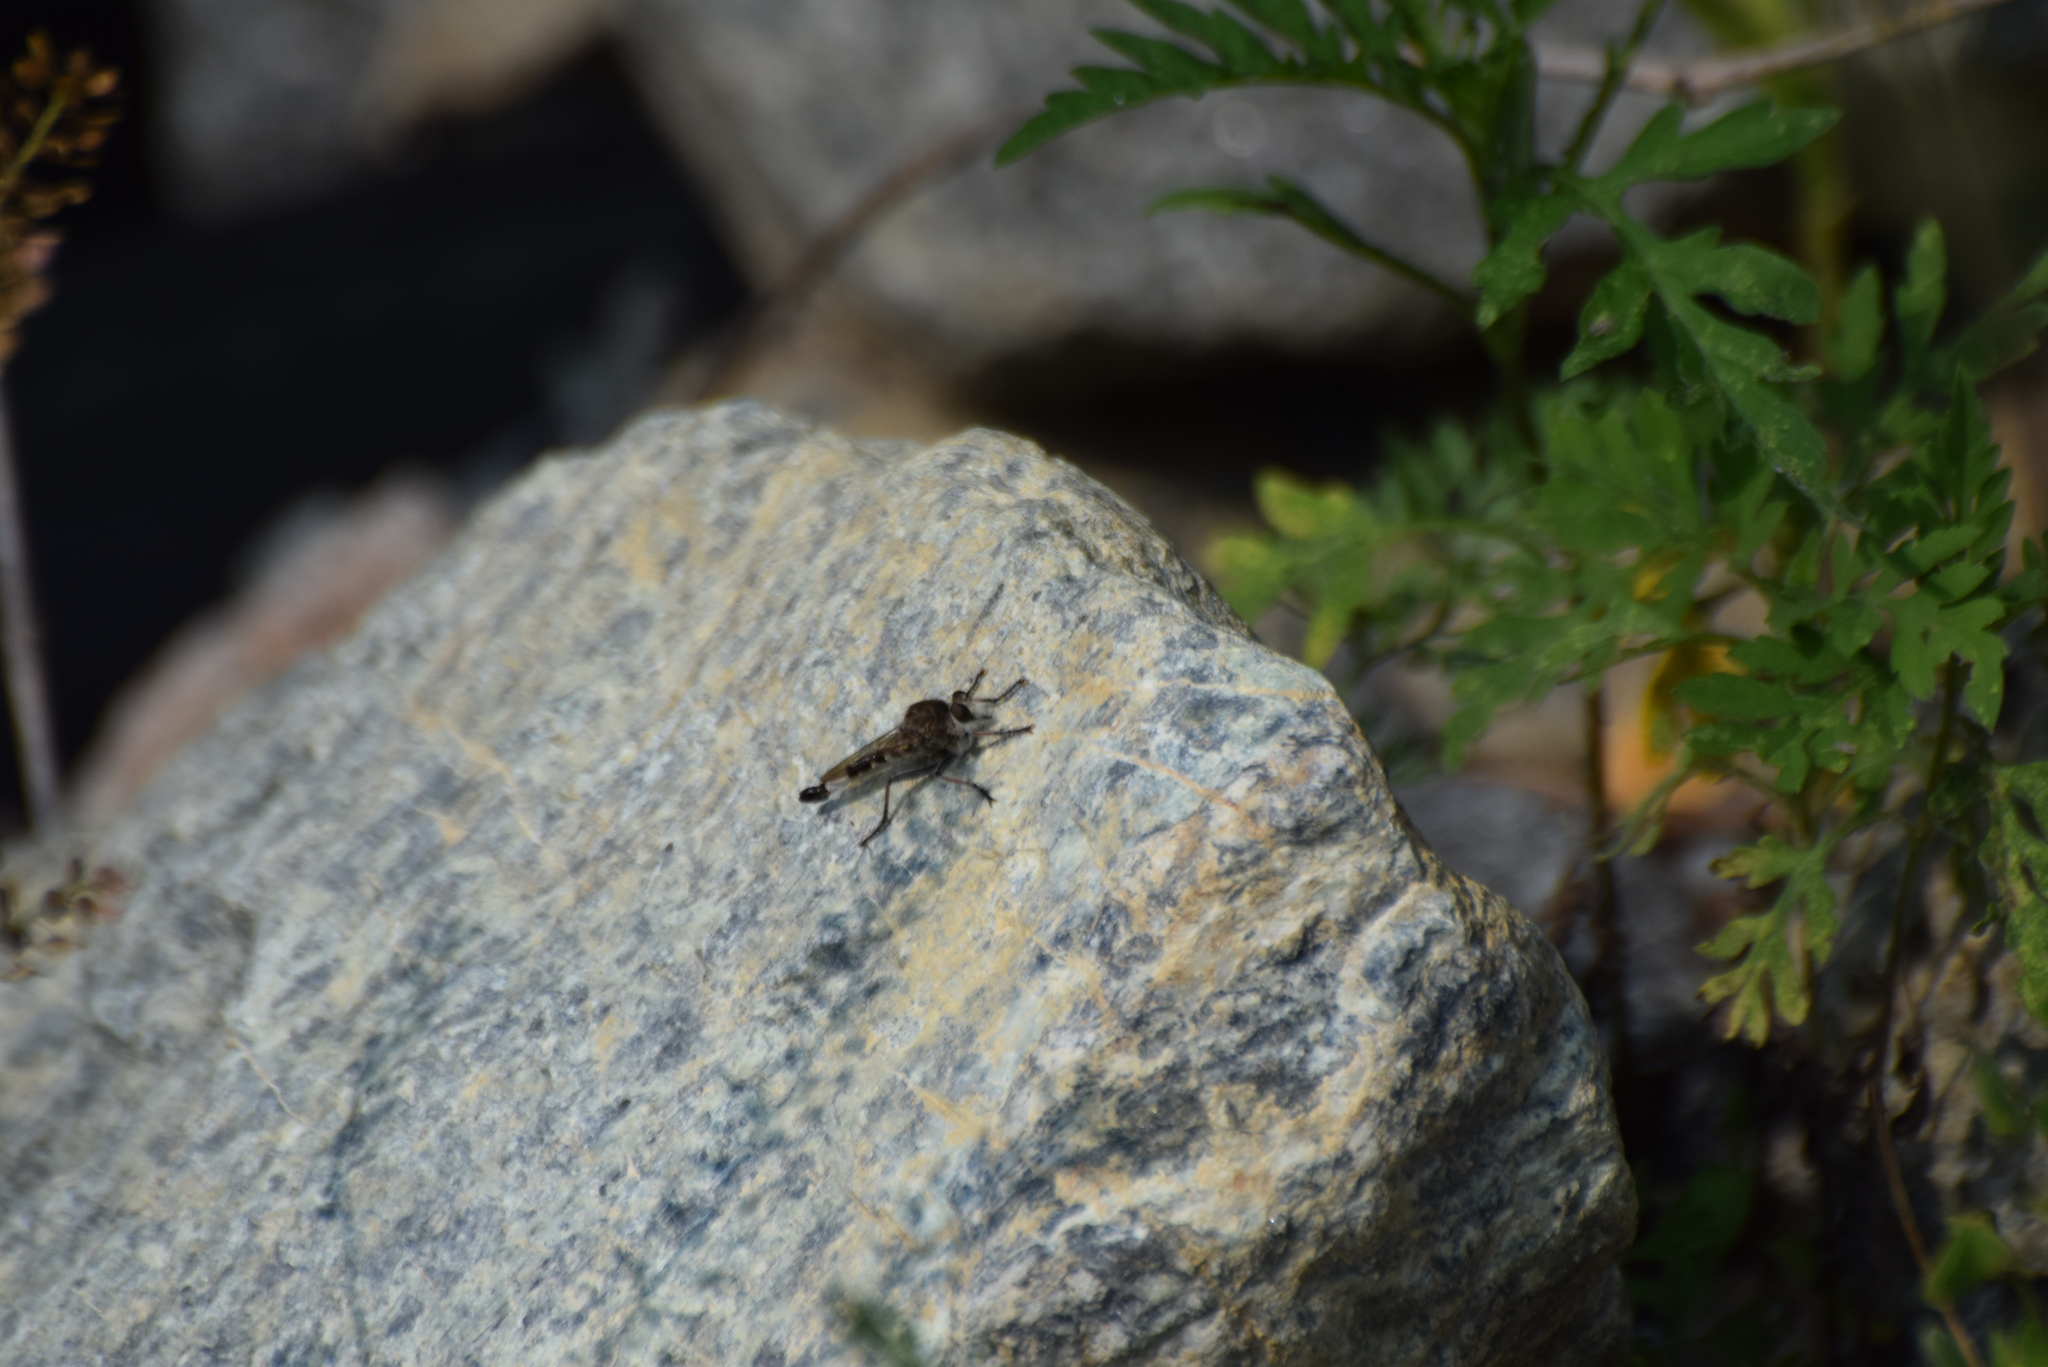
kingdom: Animalia
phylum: Arthropoda
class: Insecta
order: Diptera
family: Asilidae
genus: Efferia
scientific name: Efferia albibarbis
